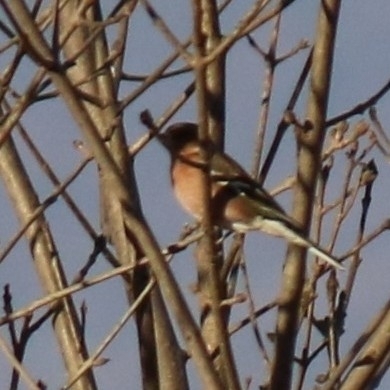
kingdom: Animalia
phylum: Chordata
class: Aves
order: Passeriformes
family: Fringillidae
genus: Fringilla
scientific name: Fringilla coelebs
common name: Common chaffinch
